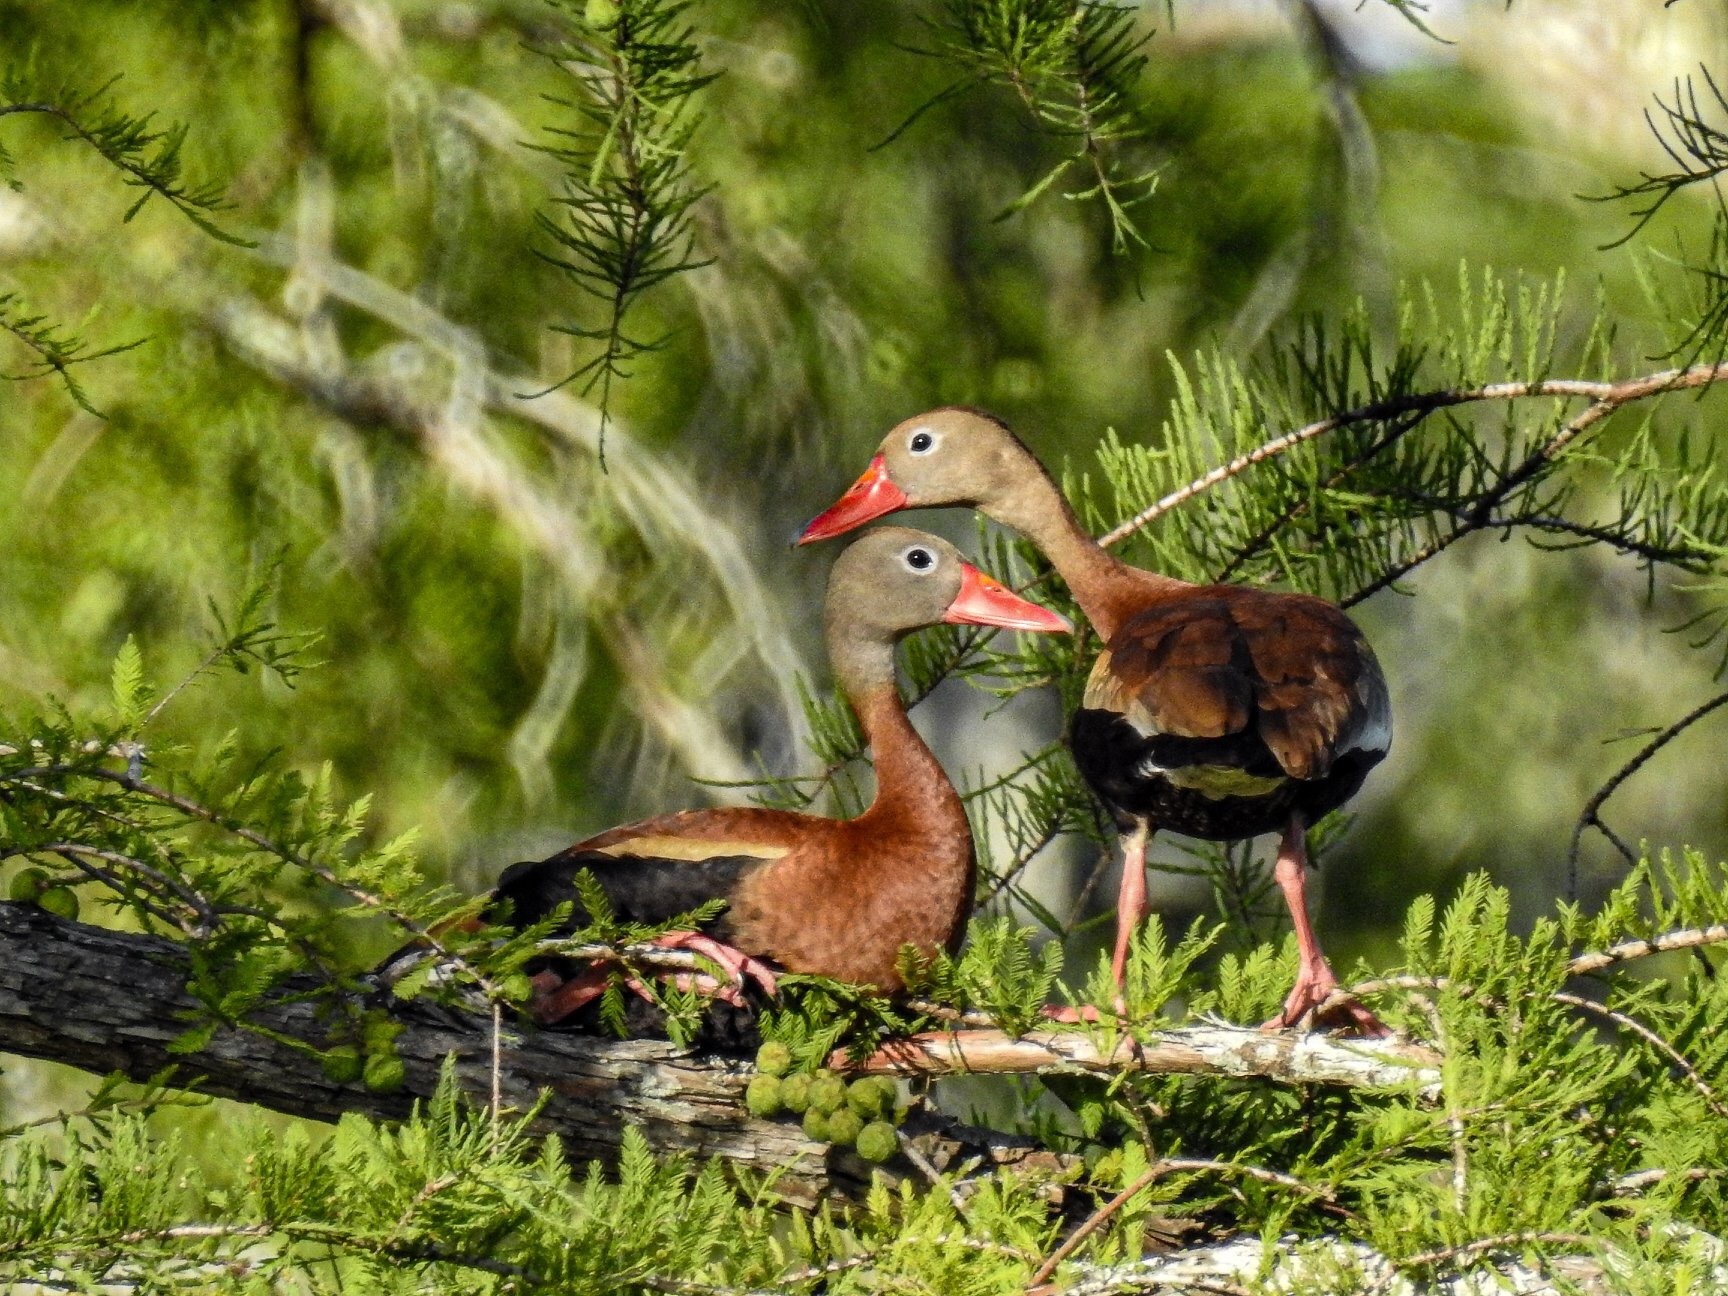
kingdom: Animalia
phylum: Chordata
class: Aves
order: Anseriformes
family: Anatidae
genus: Dendrocygna
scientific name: Dendrocygna autumnalis
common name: Black-bellied whistling duck
